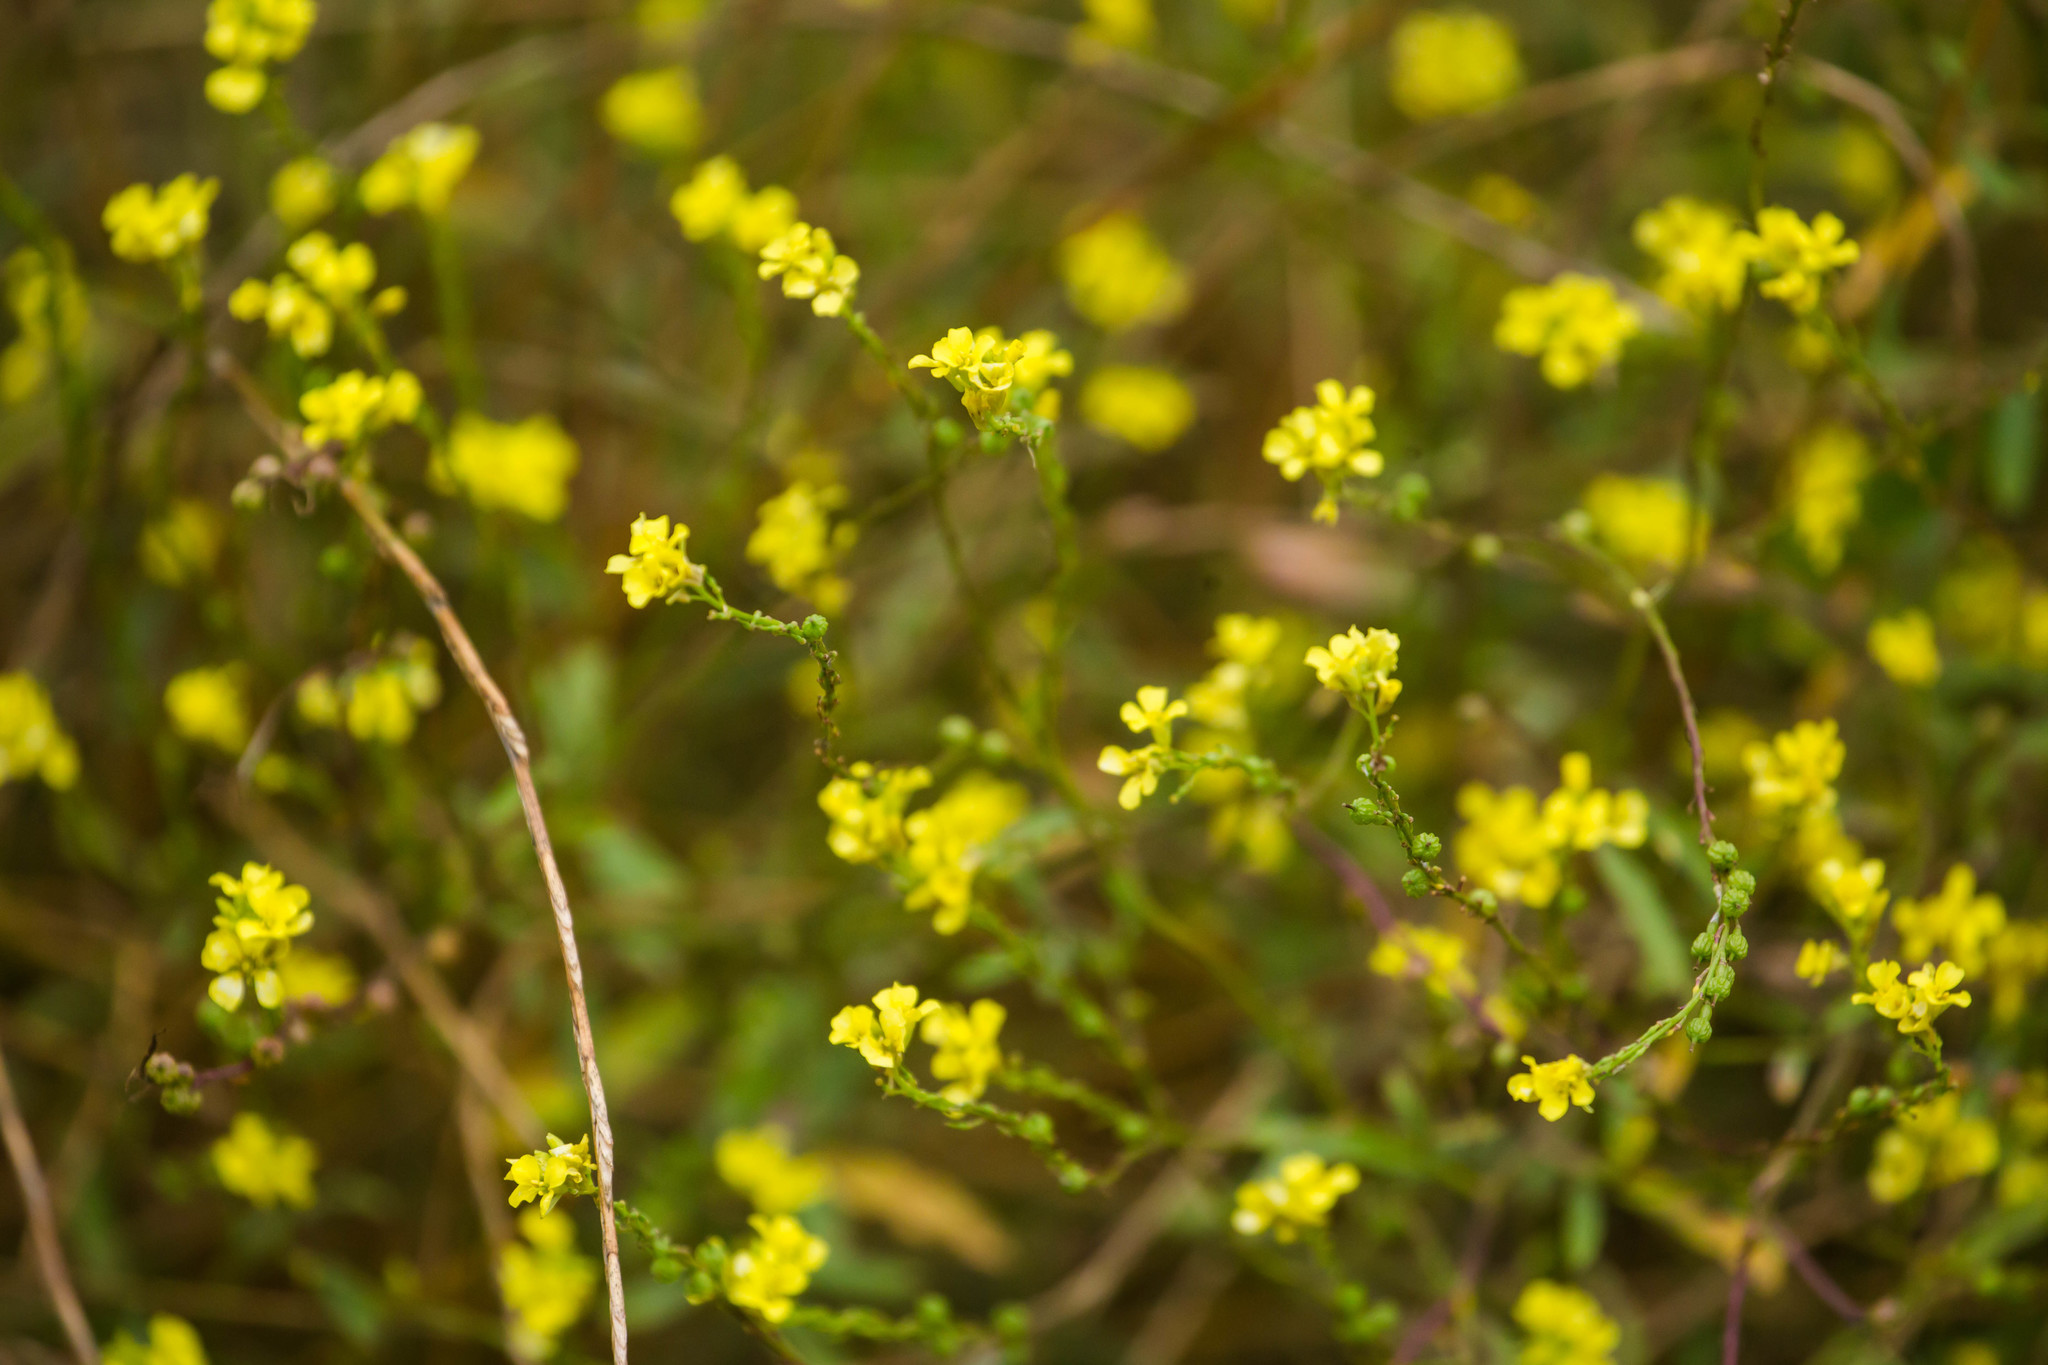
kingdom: Plantae
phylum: Tracheophyta
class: Magnoliopsida
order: Brassicales
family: Brassicaceae
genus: Rapistrum
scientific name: Rapistrum rugosum
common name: Annual bastardcabbage
